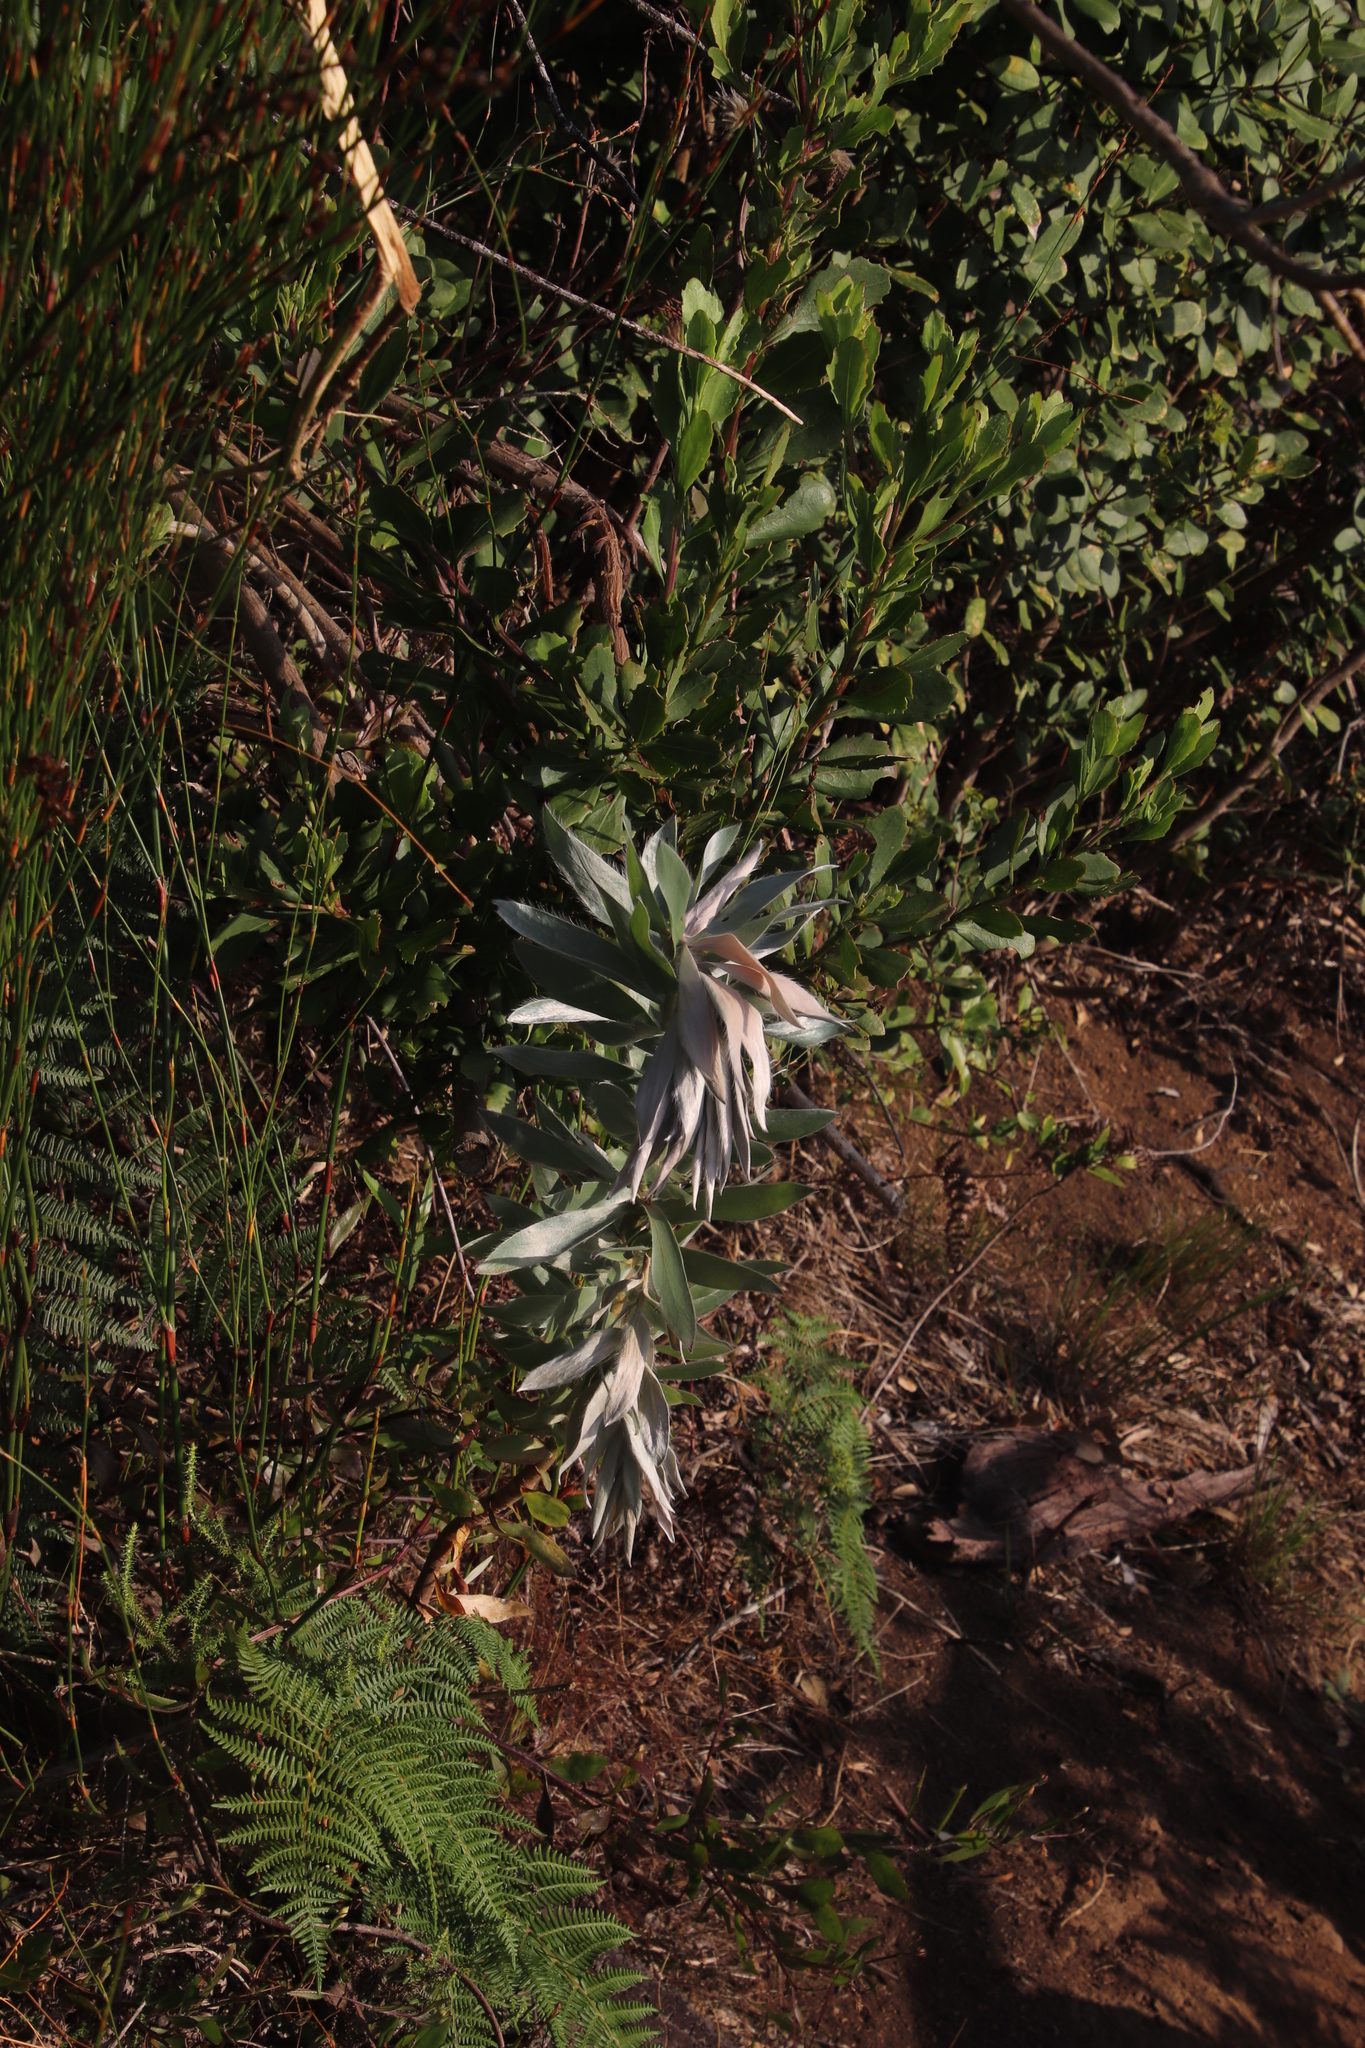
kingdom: Plantae
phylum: Tracheophyta
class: Magnoliopsida
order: Proteales
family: Proteaceae
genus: Leucadendron
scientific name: Leucadendron argenteum
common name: Cape silver tree
